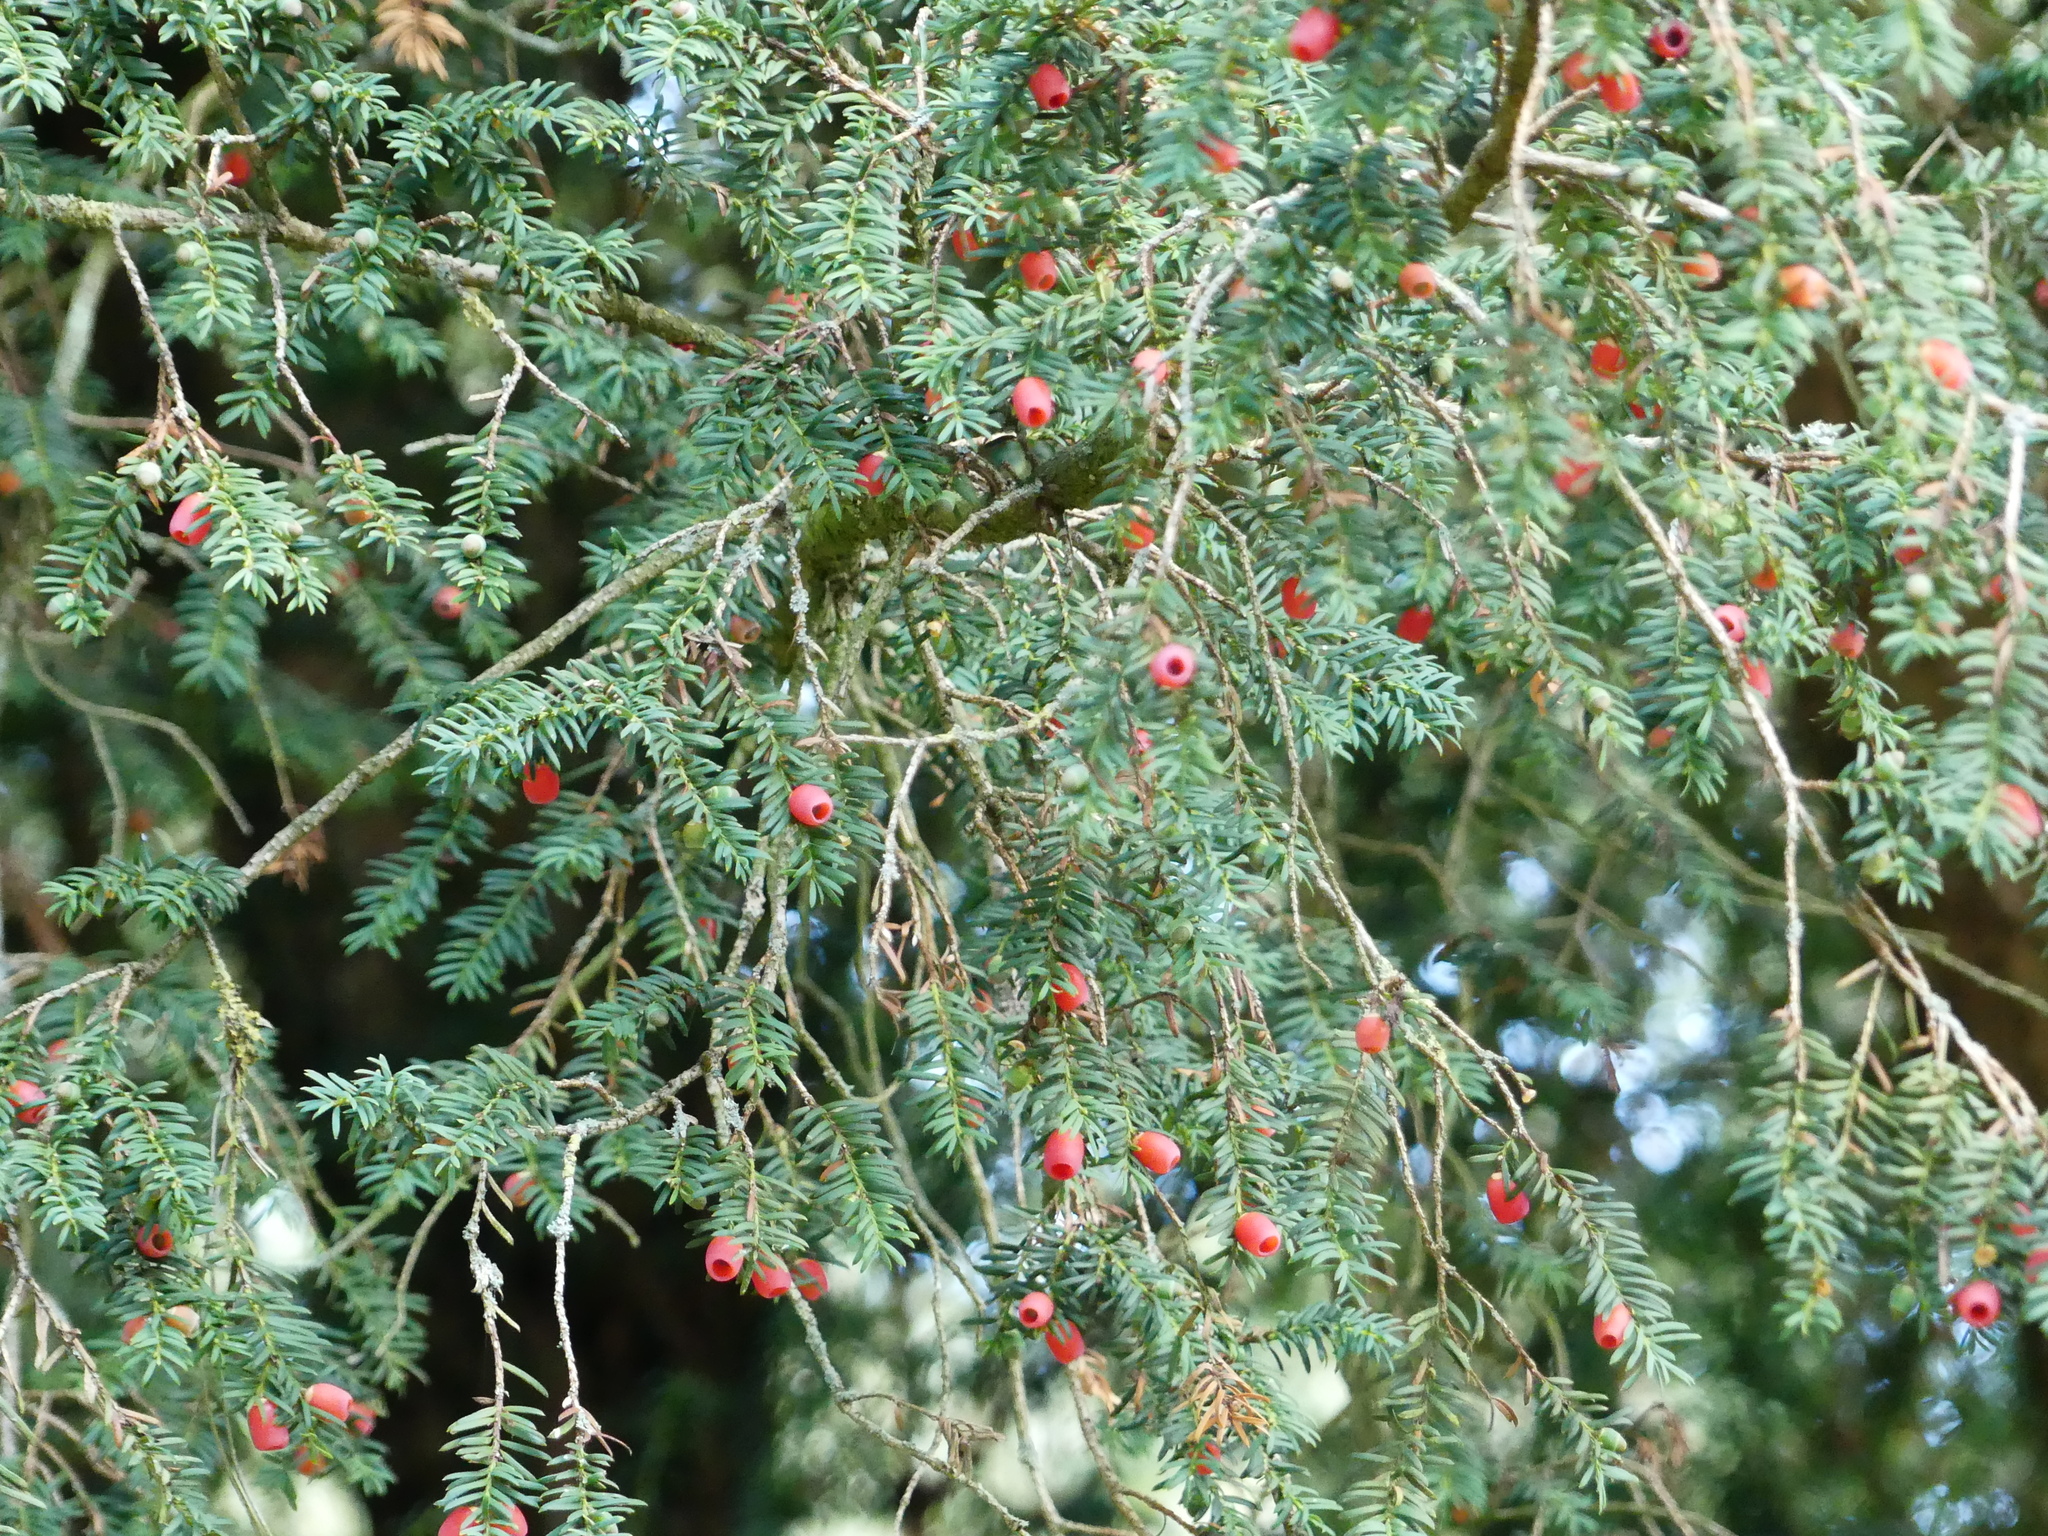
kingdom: Plantae
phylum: Tracheophyta
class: Pinopsida
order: Pinales
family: Taxaceae
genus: Taxus
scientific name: Taxus baccata
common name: Yew
